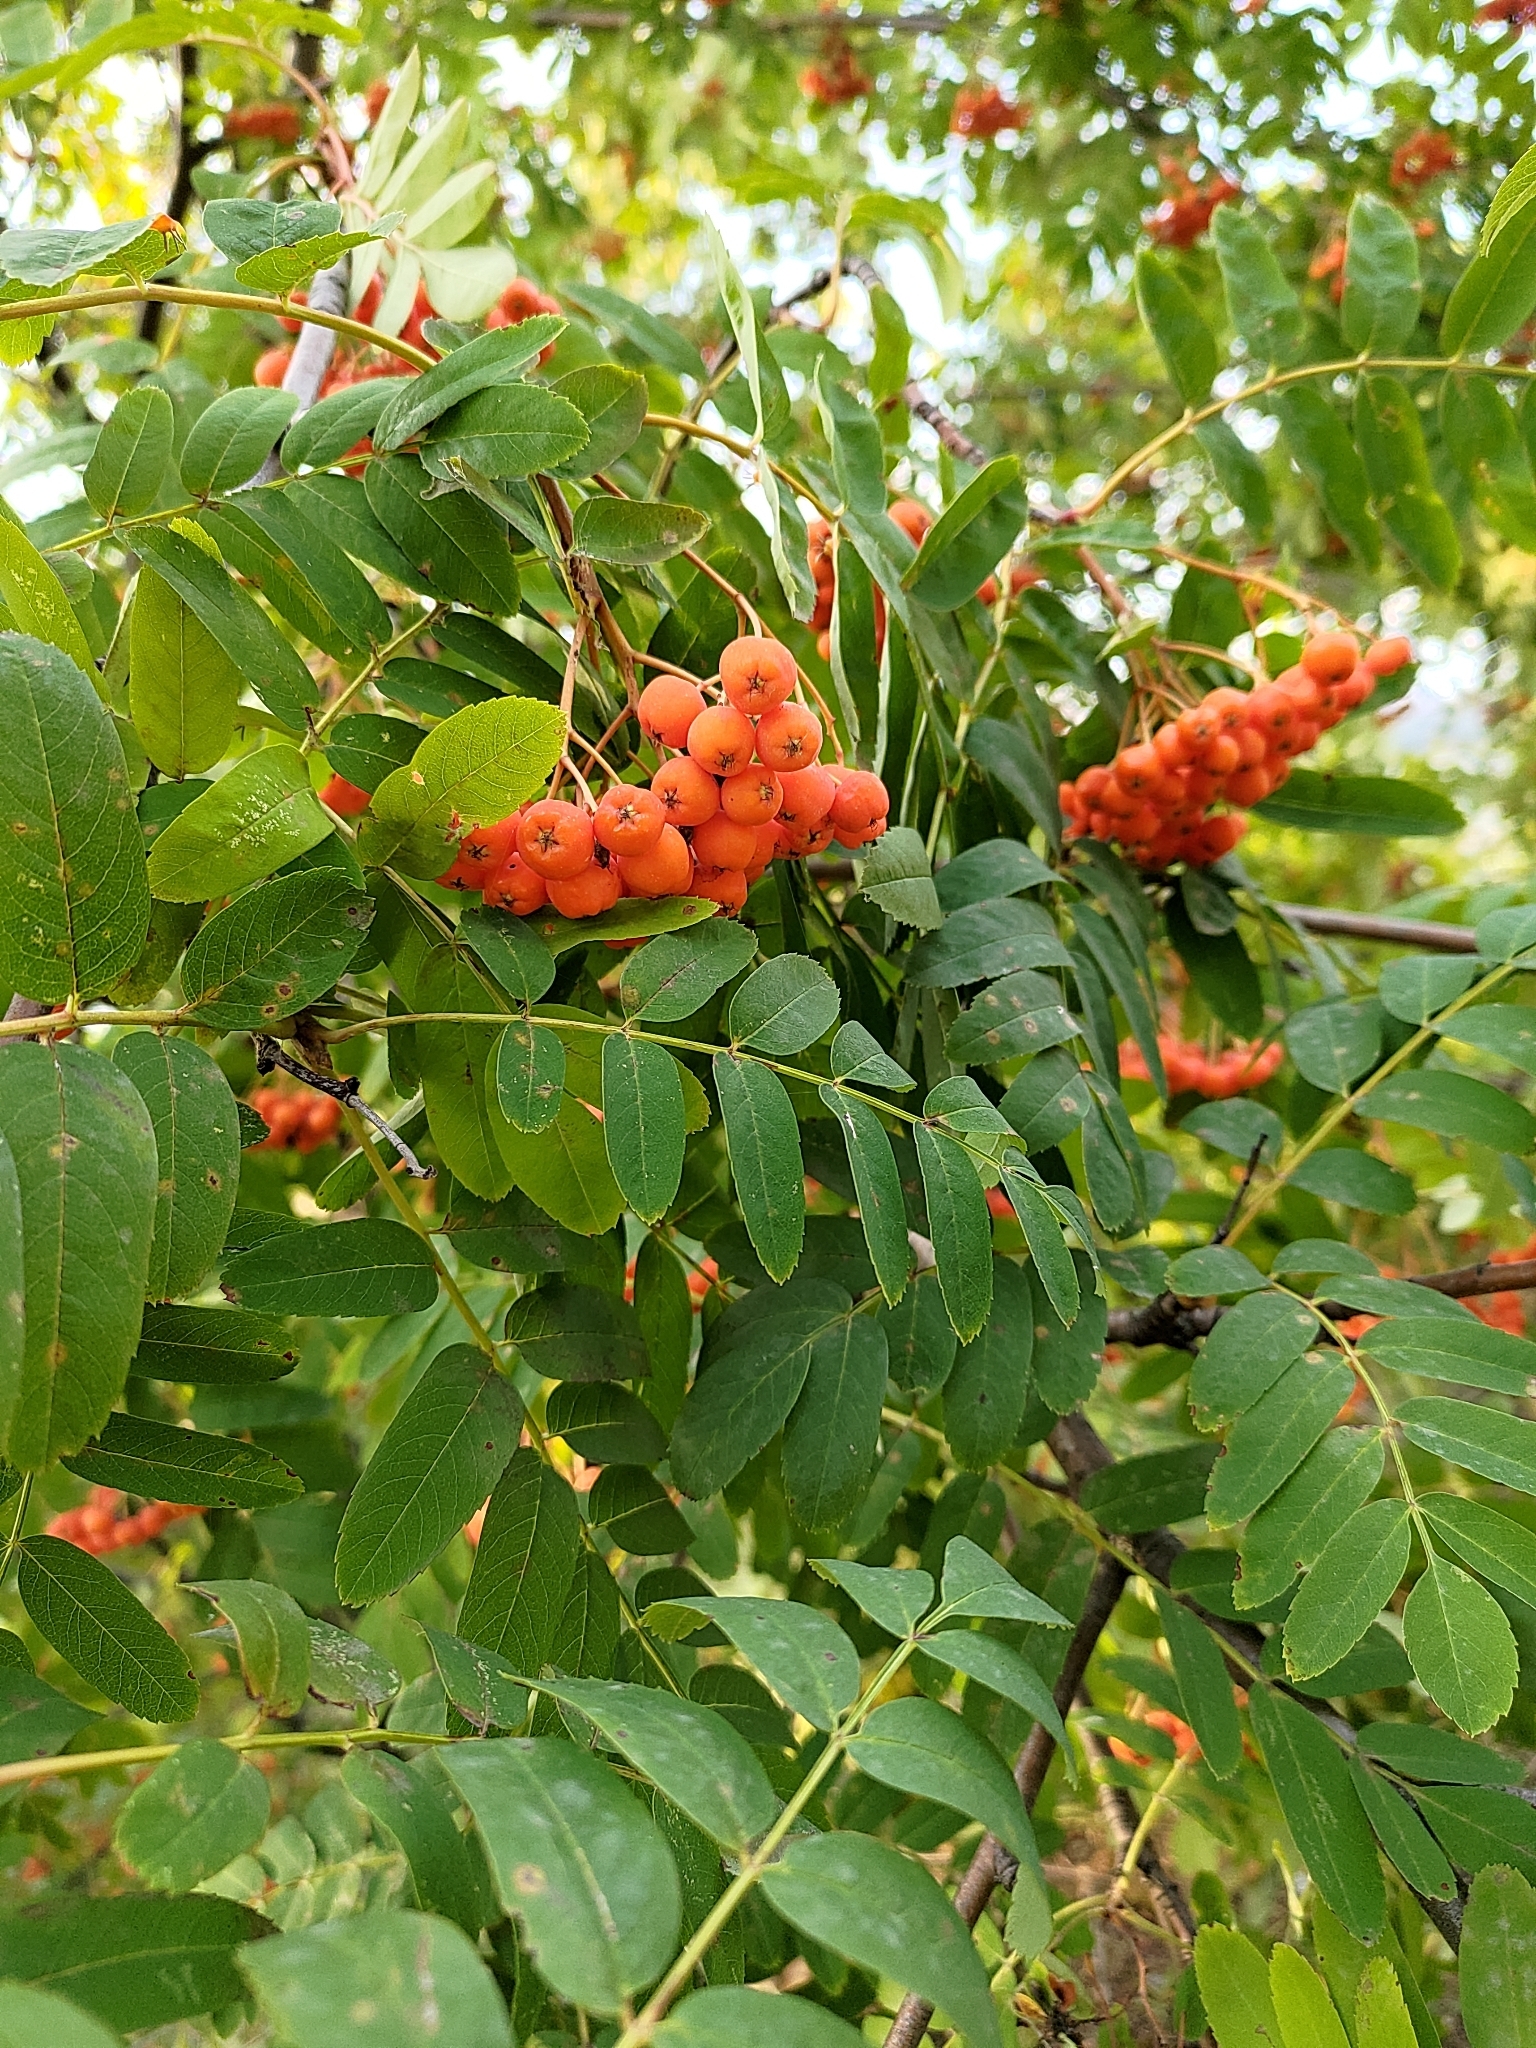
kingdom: Plantae
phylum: Tracheophyta
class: Magnoliopsida
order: Rosales
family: Rosaceae
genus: Sorbus
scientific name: Sorbus aucuparia
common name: Rowan
